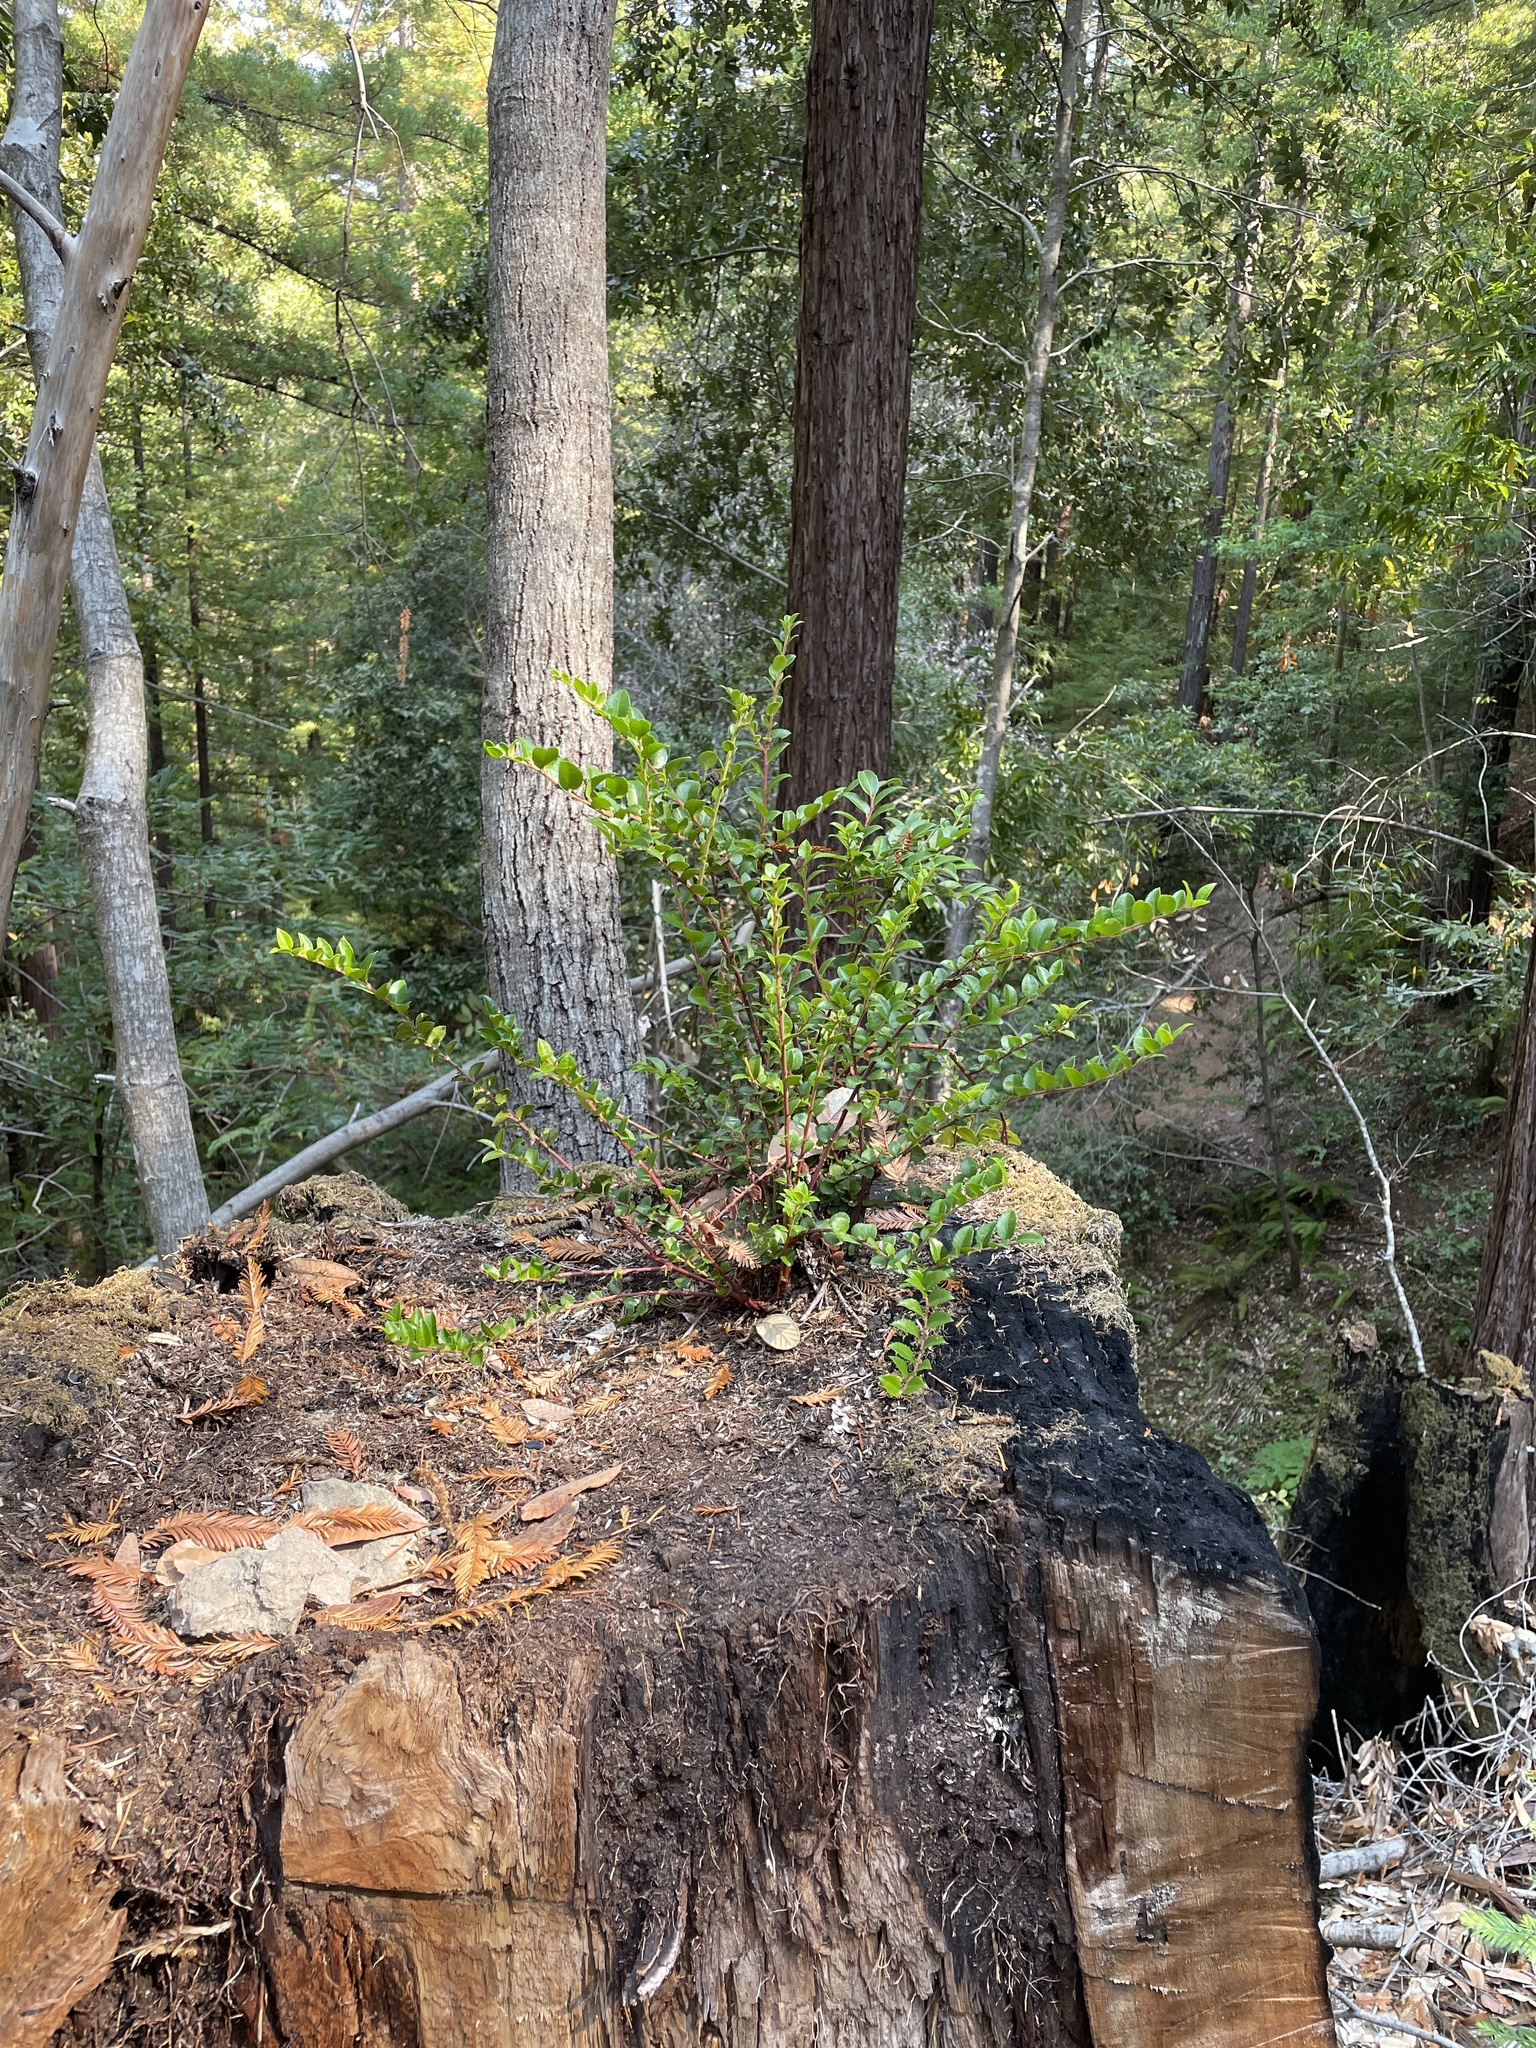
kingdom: Plantae
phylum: Tracheophyta
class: Magnoliopsida
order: Ericales
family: Ericaceae
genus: Vaccinium
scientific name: Vaccinium ovatum
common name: California-huckleberry
